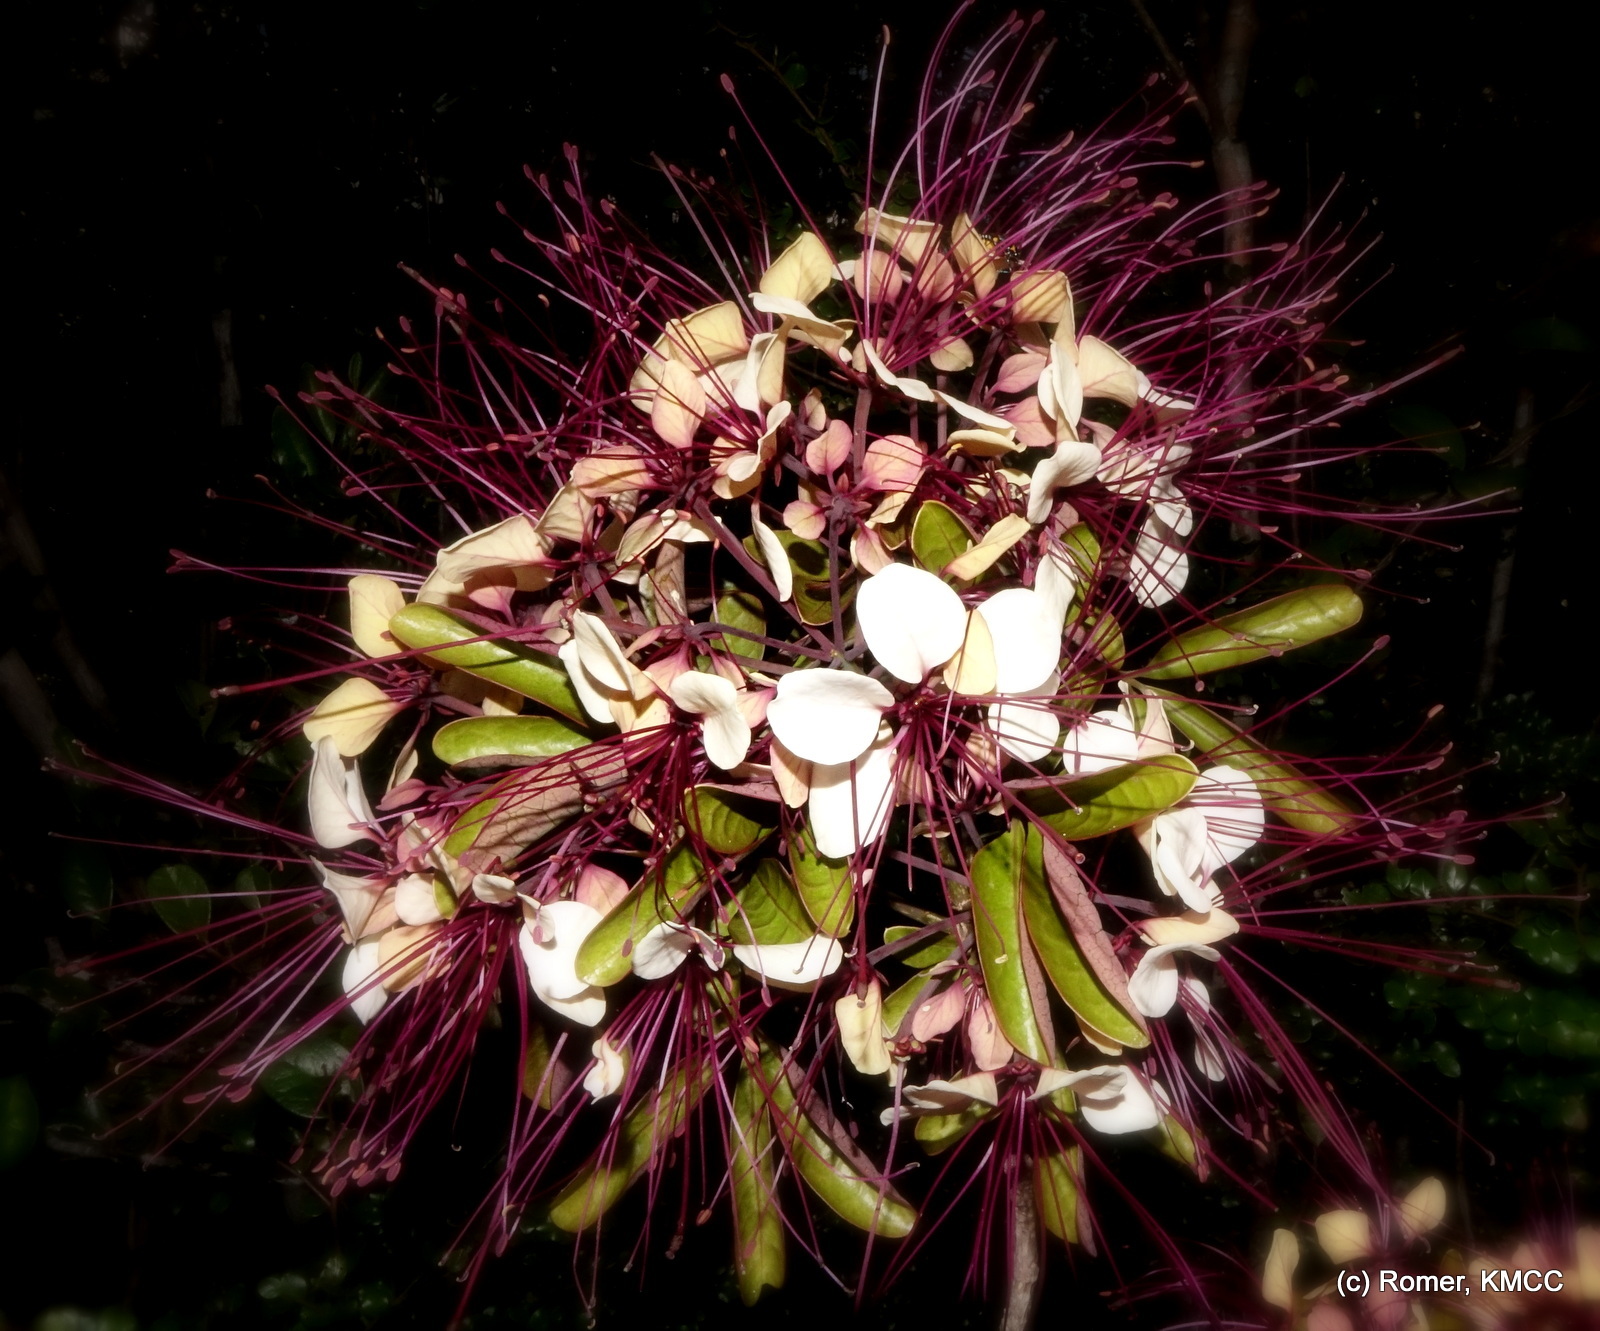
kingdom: Plantae
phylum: Tracheophyta
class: Magnoliopsida
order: Brassicales
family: Capparaceae
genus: Crateva
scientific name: Crateva obovata
